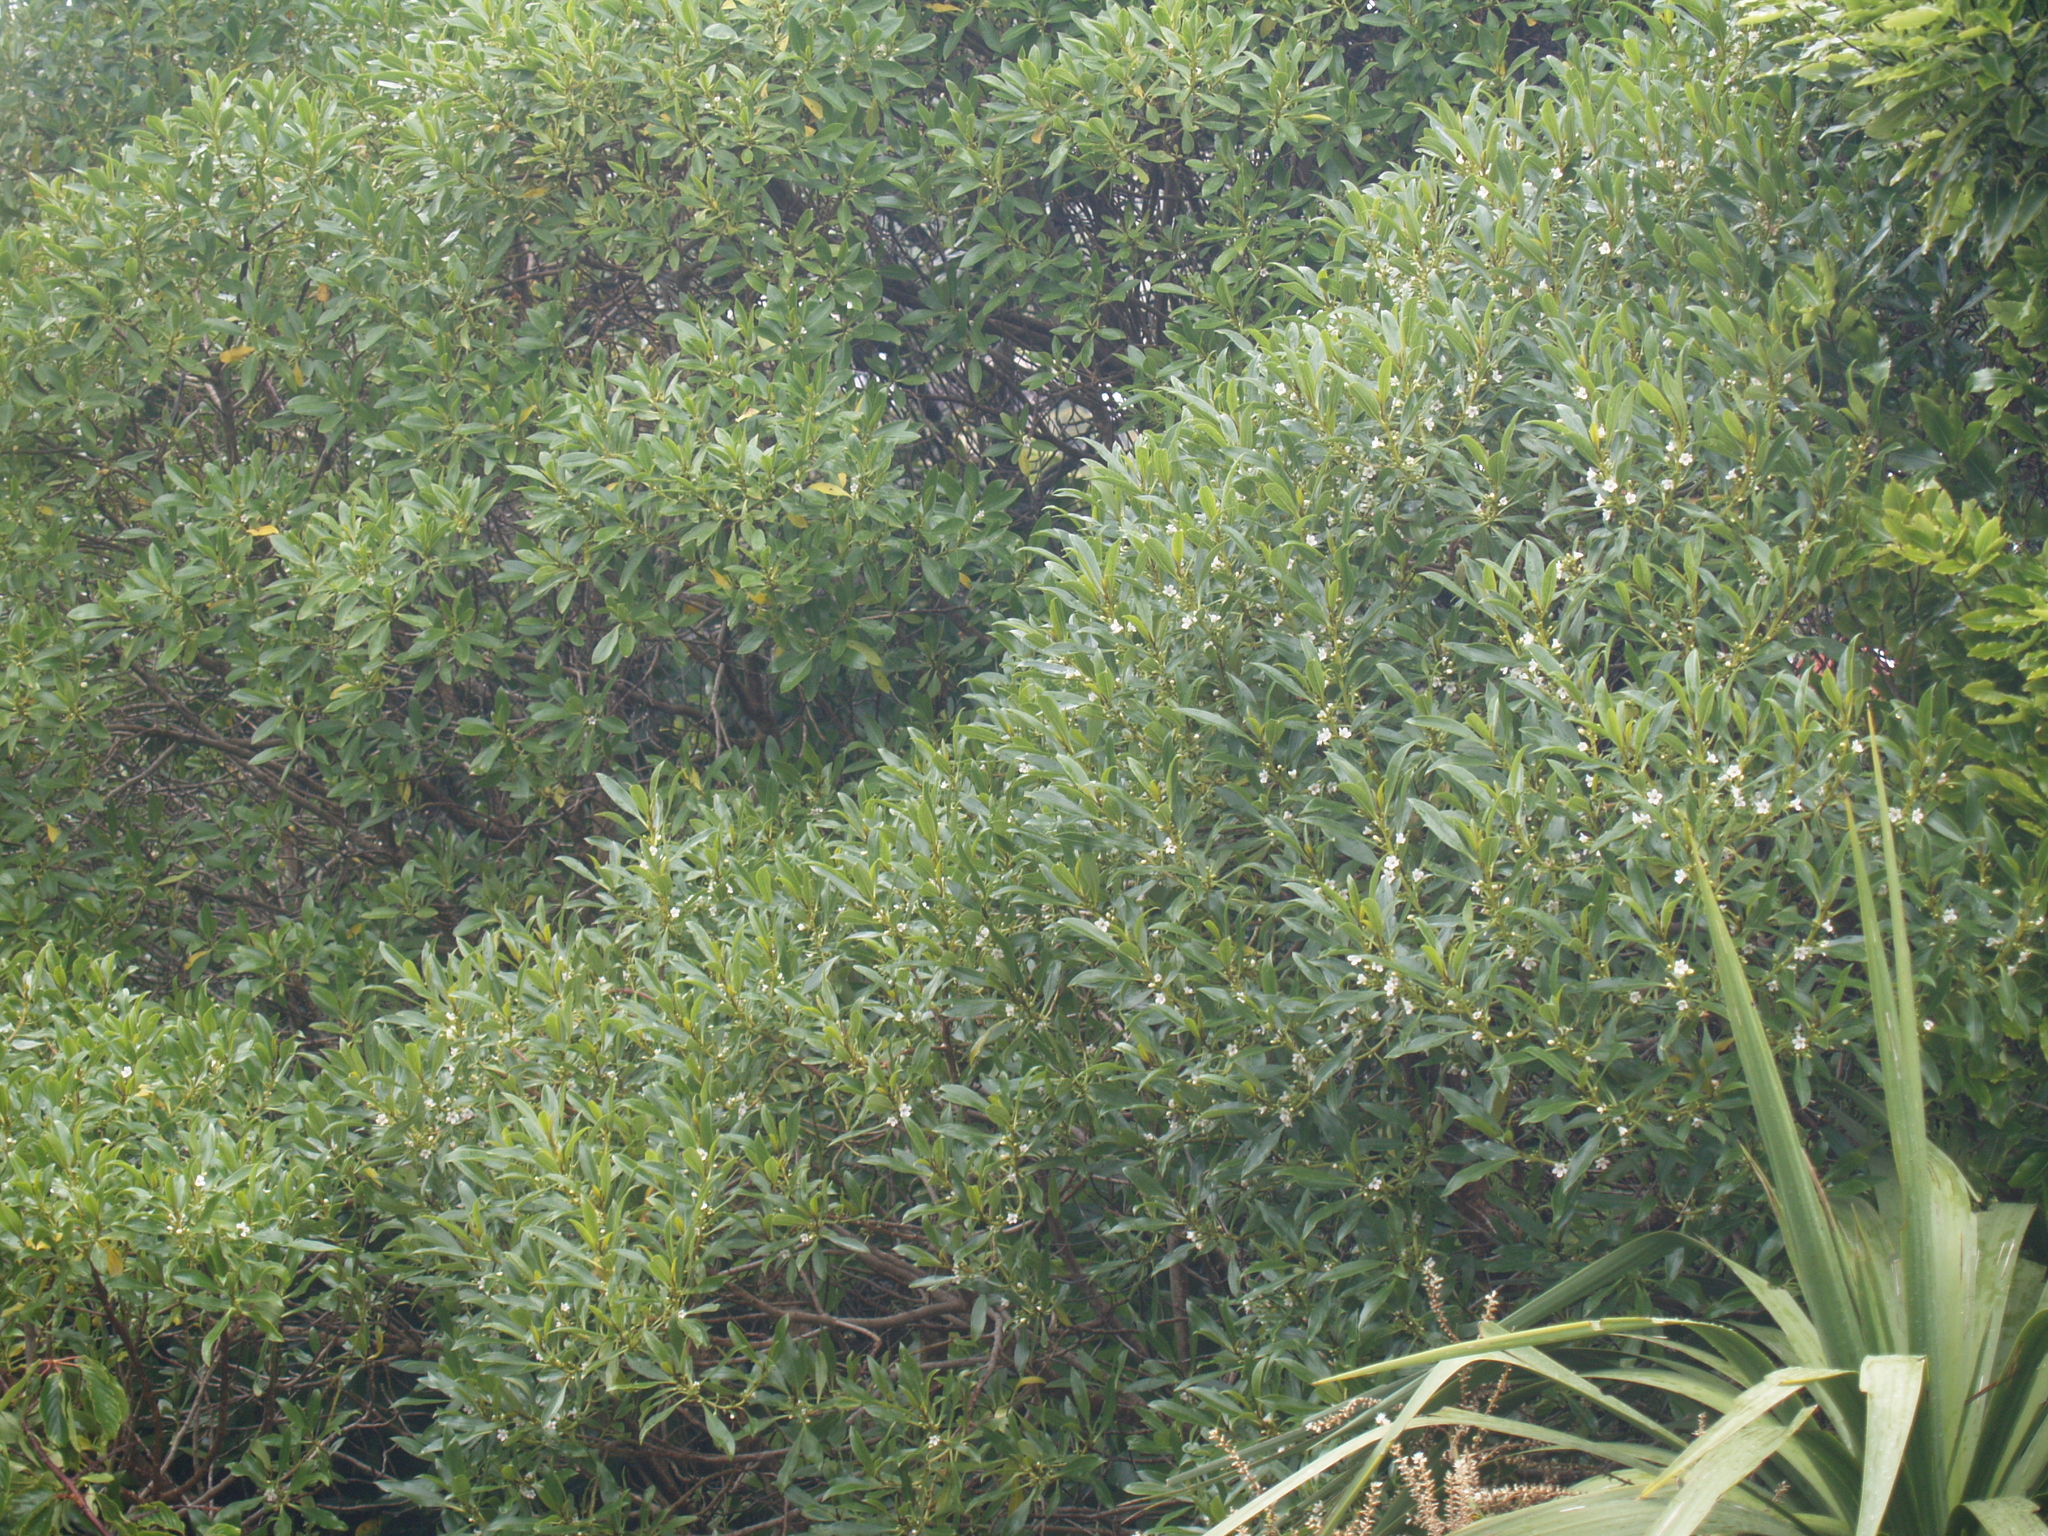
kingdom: Plantae
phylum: Tracheophyta
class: Magnoliopsida
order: Lamiales
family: Scrophulariaceae
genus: Myoporum
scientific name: Myoporum laetum
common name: Ngaio tree
